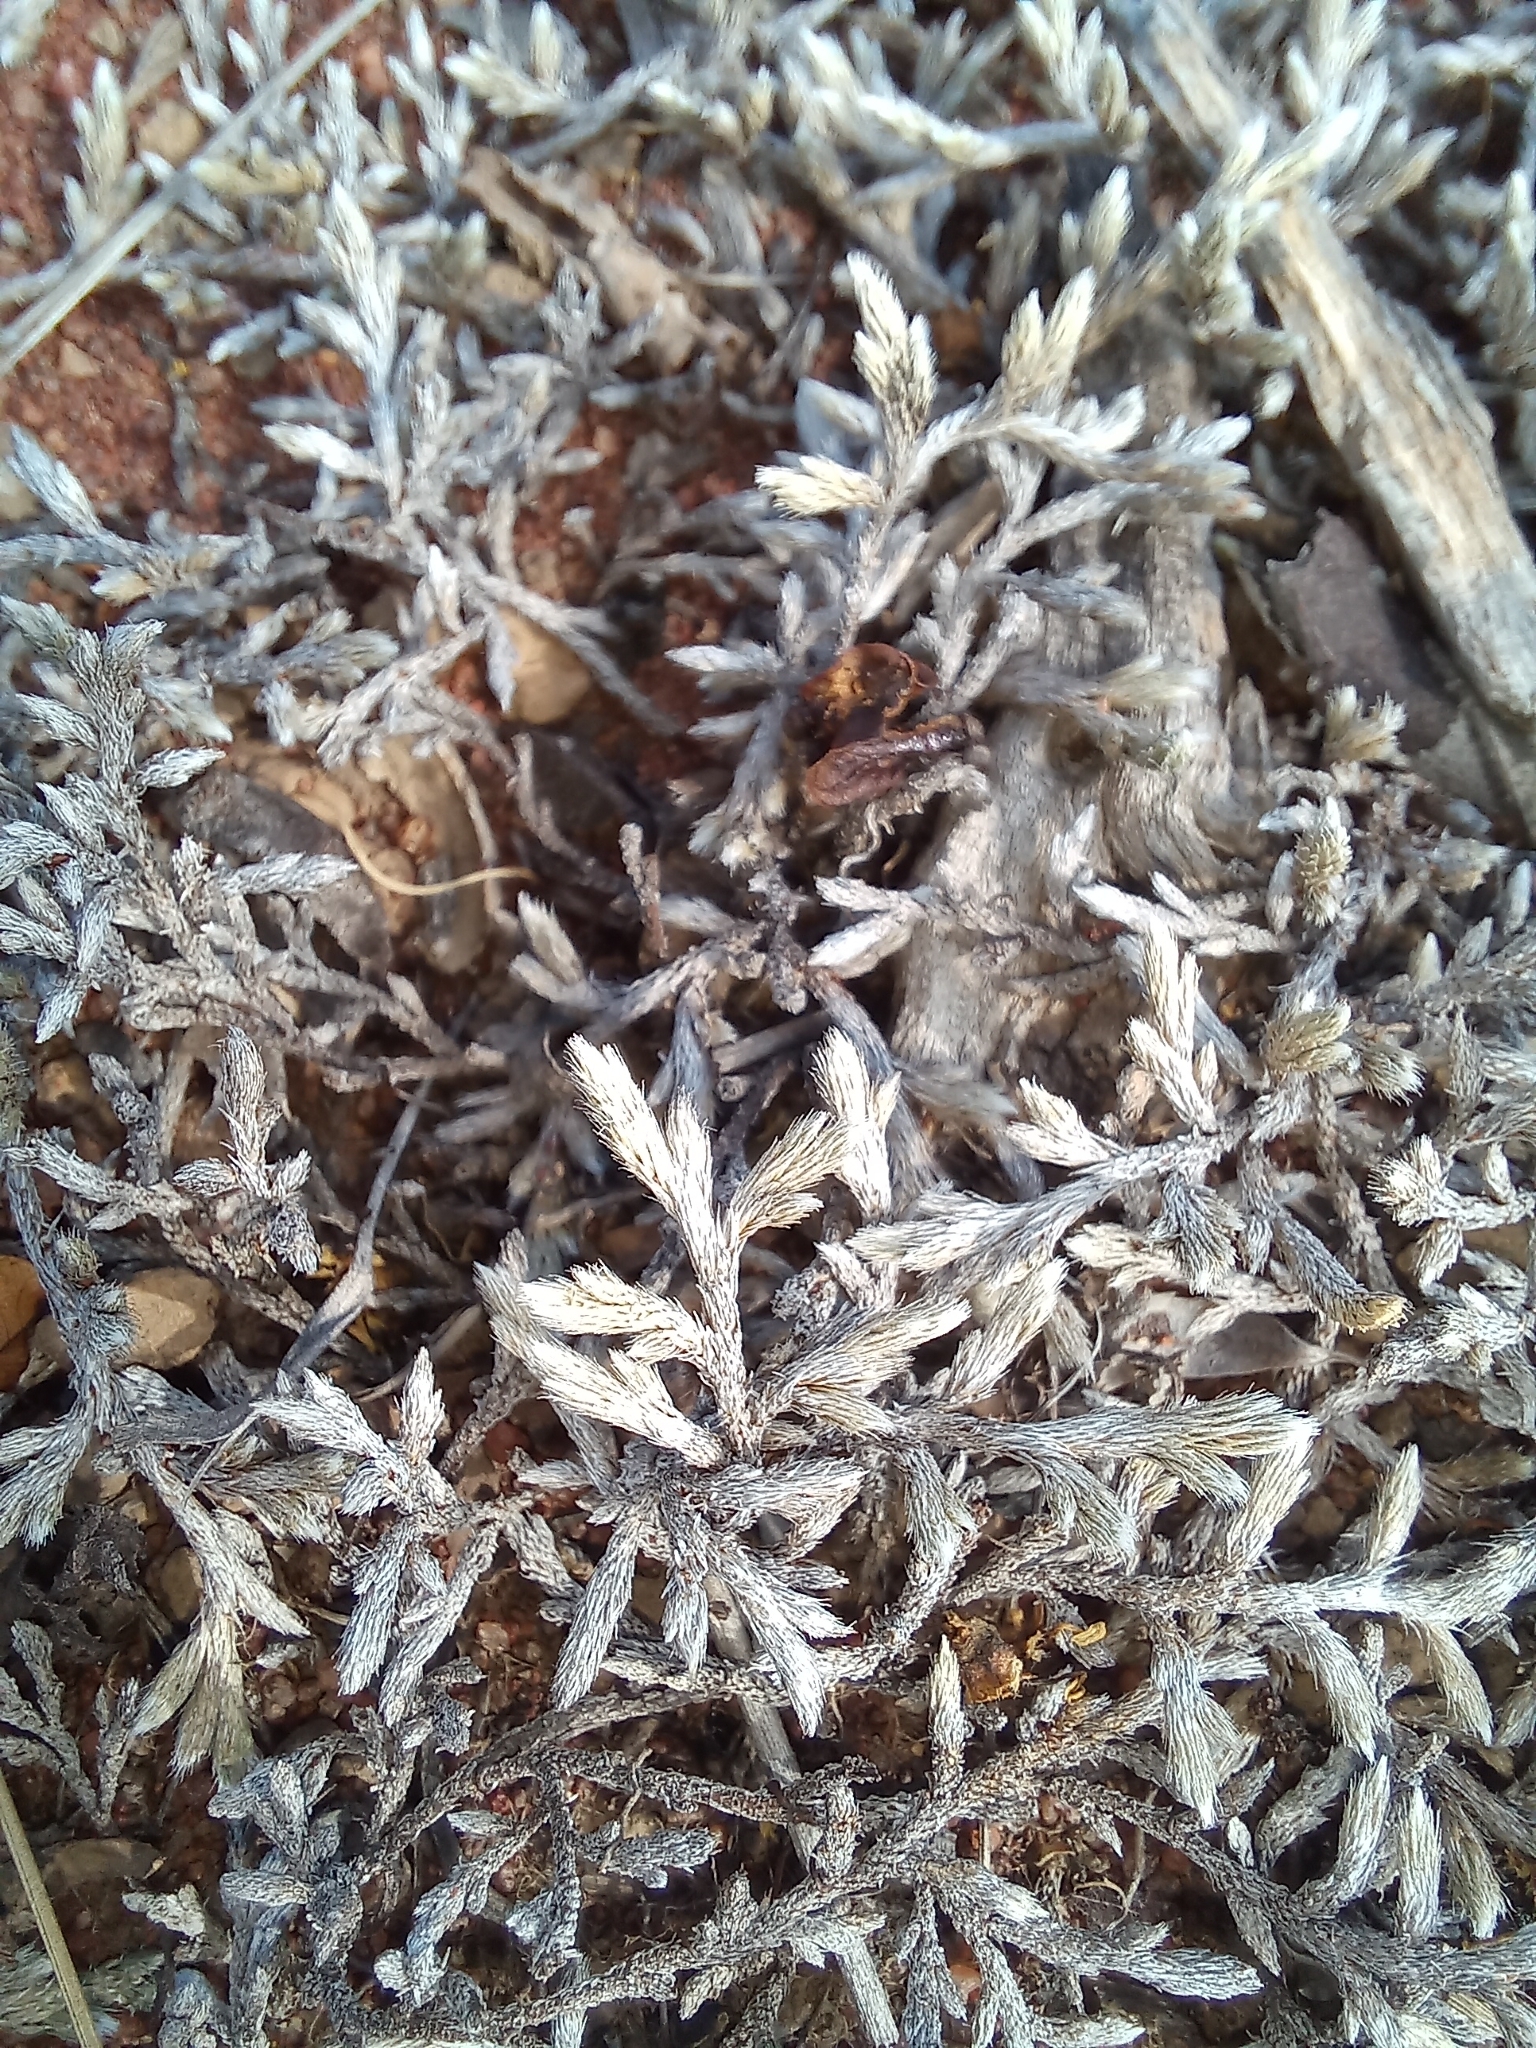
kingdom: Plantae
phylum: Tracheophyta
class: Lycopodiopsida
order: Selaginellales
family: Selaginellaceae
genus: Selaginella
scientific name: Selaginella dregei
